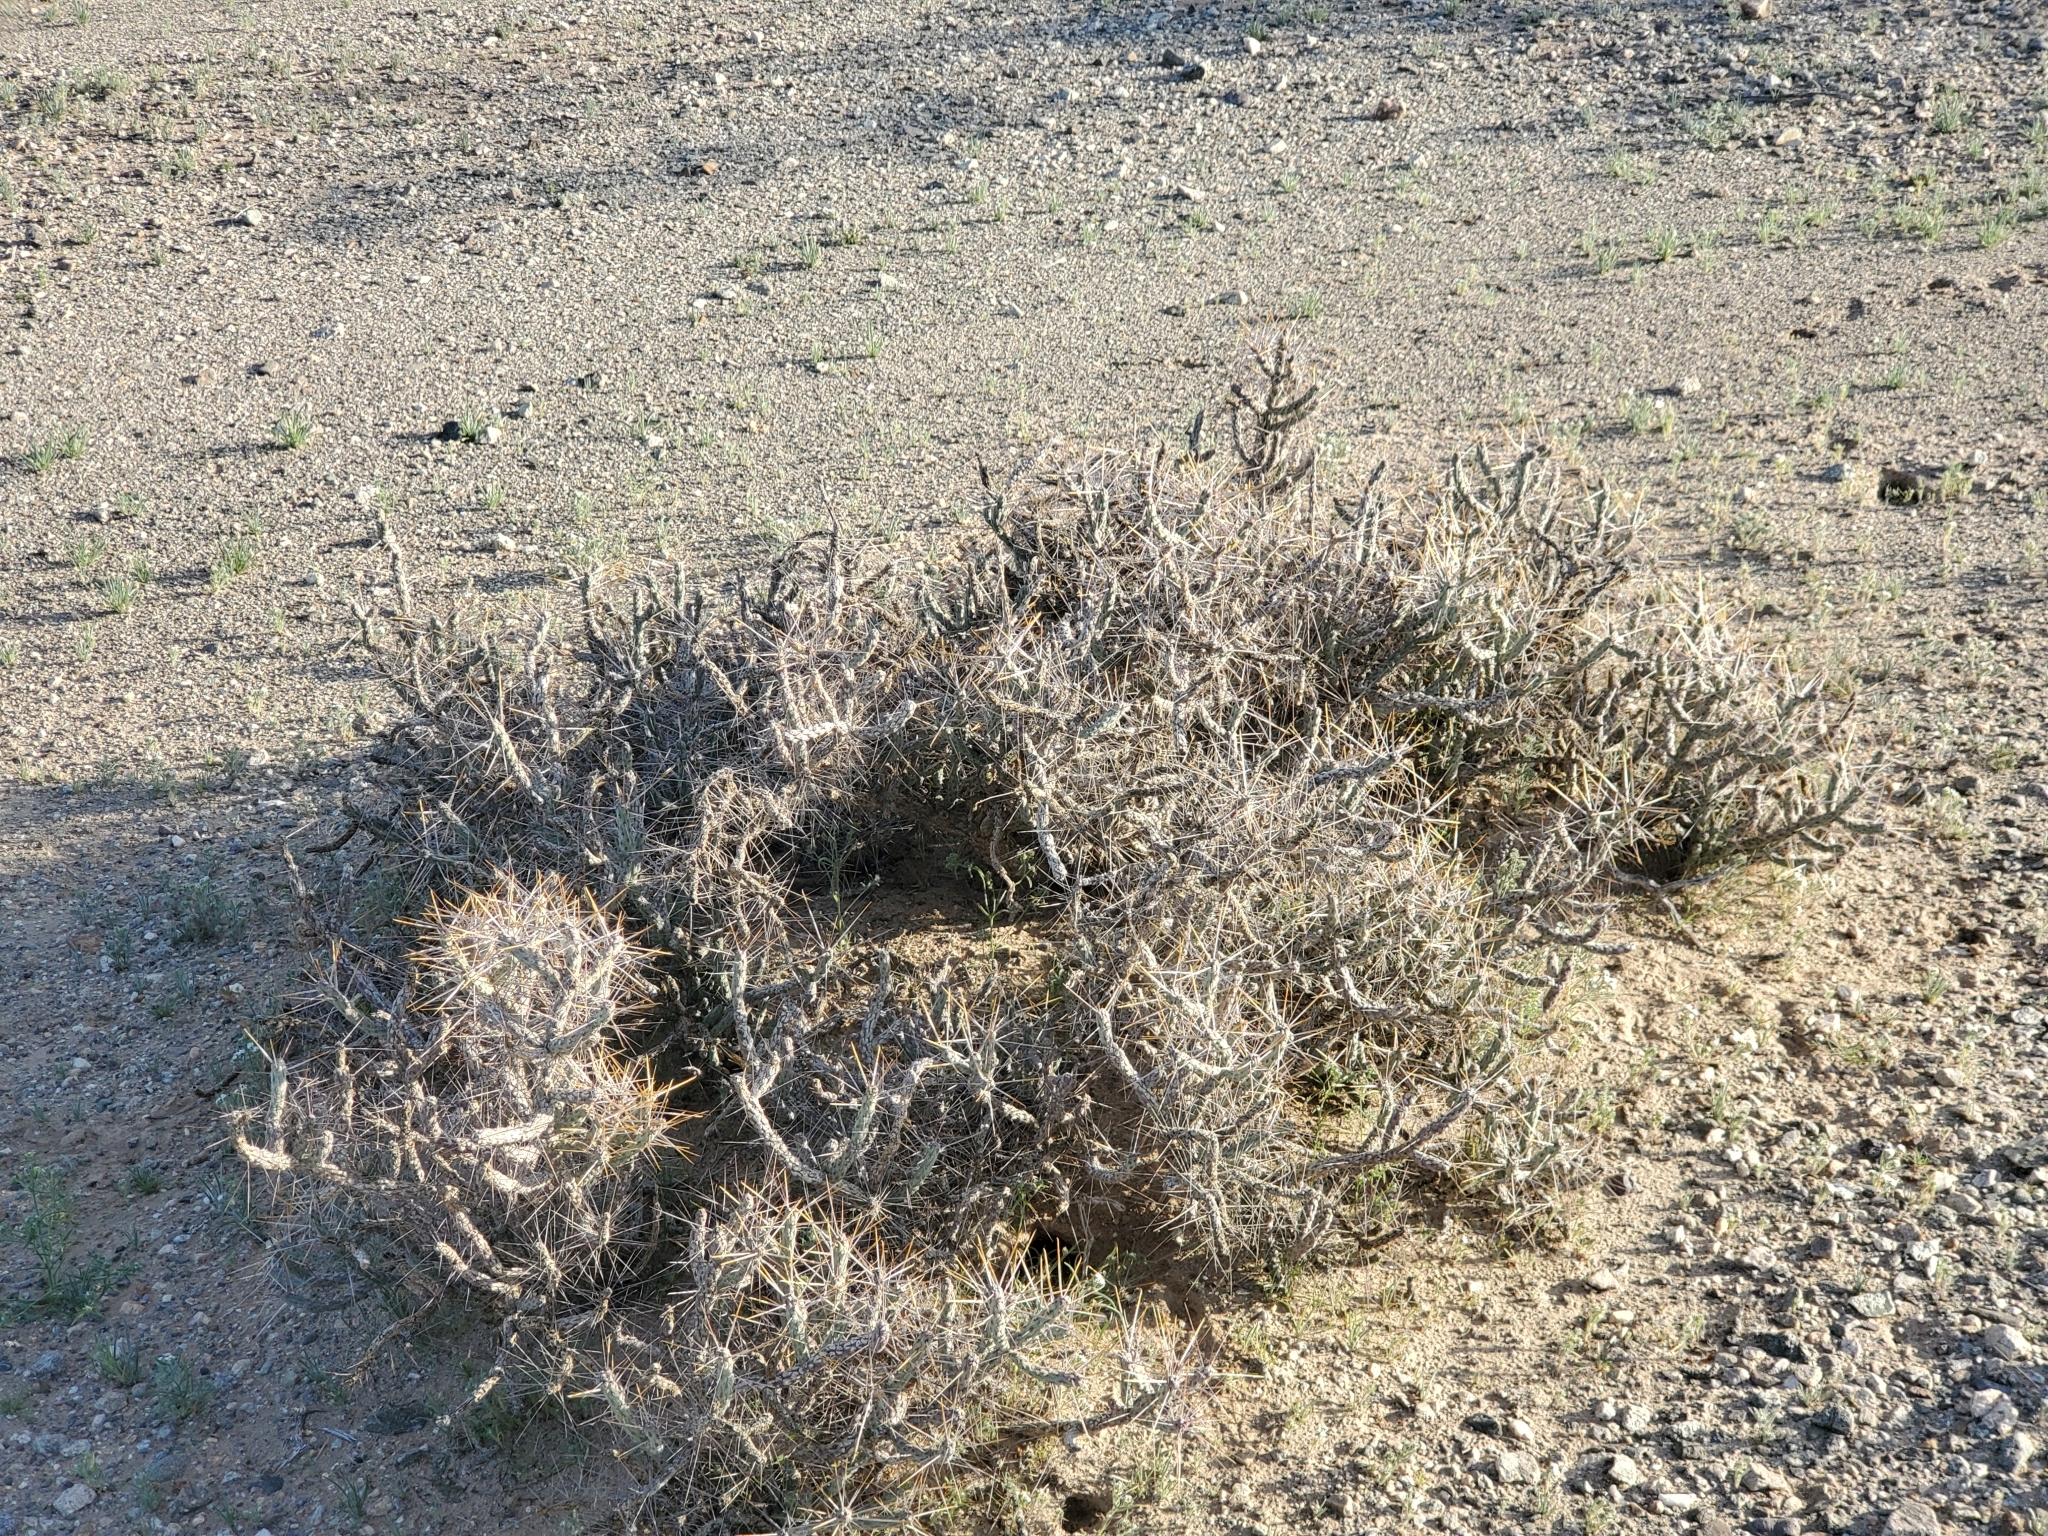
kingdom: Plantae
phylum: Tracheophyta
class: Magnoliopsida
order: Caryophyllales
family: Cactaceae
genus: Cylindropuntia
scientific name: Cylindropuntia ramosissima
